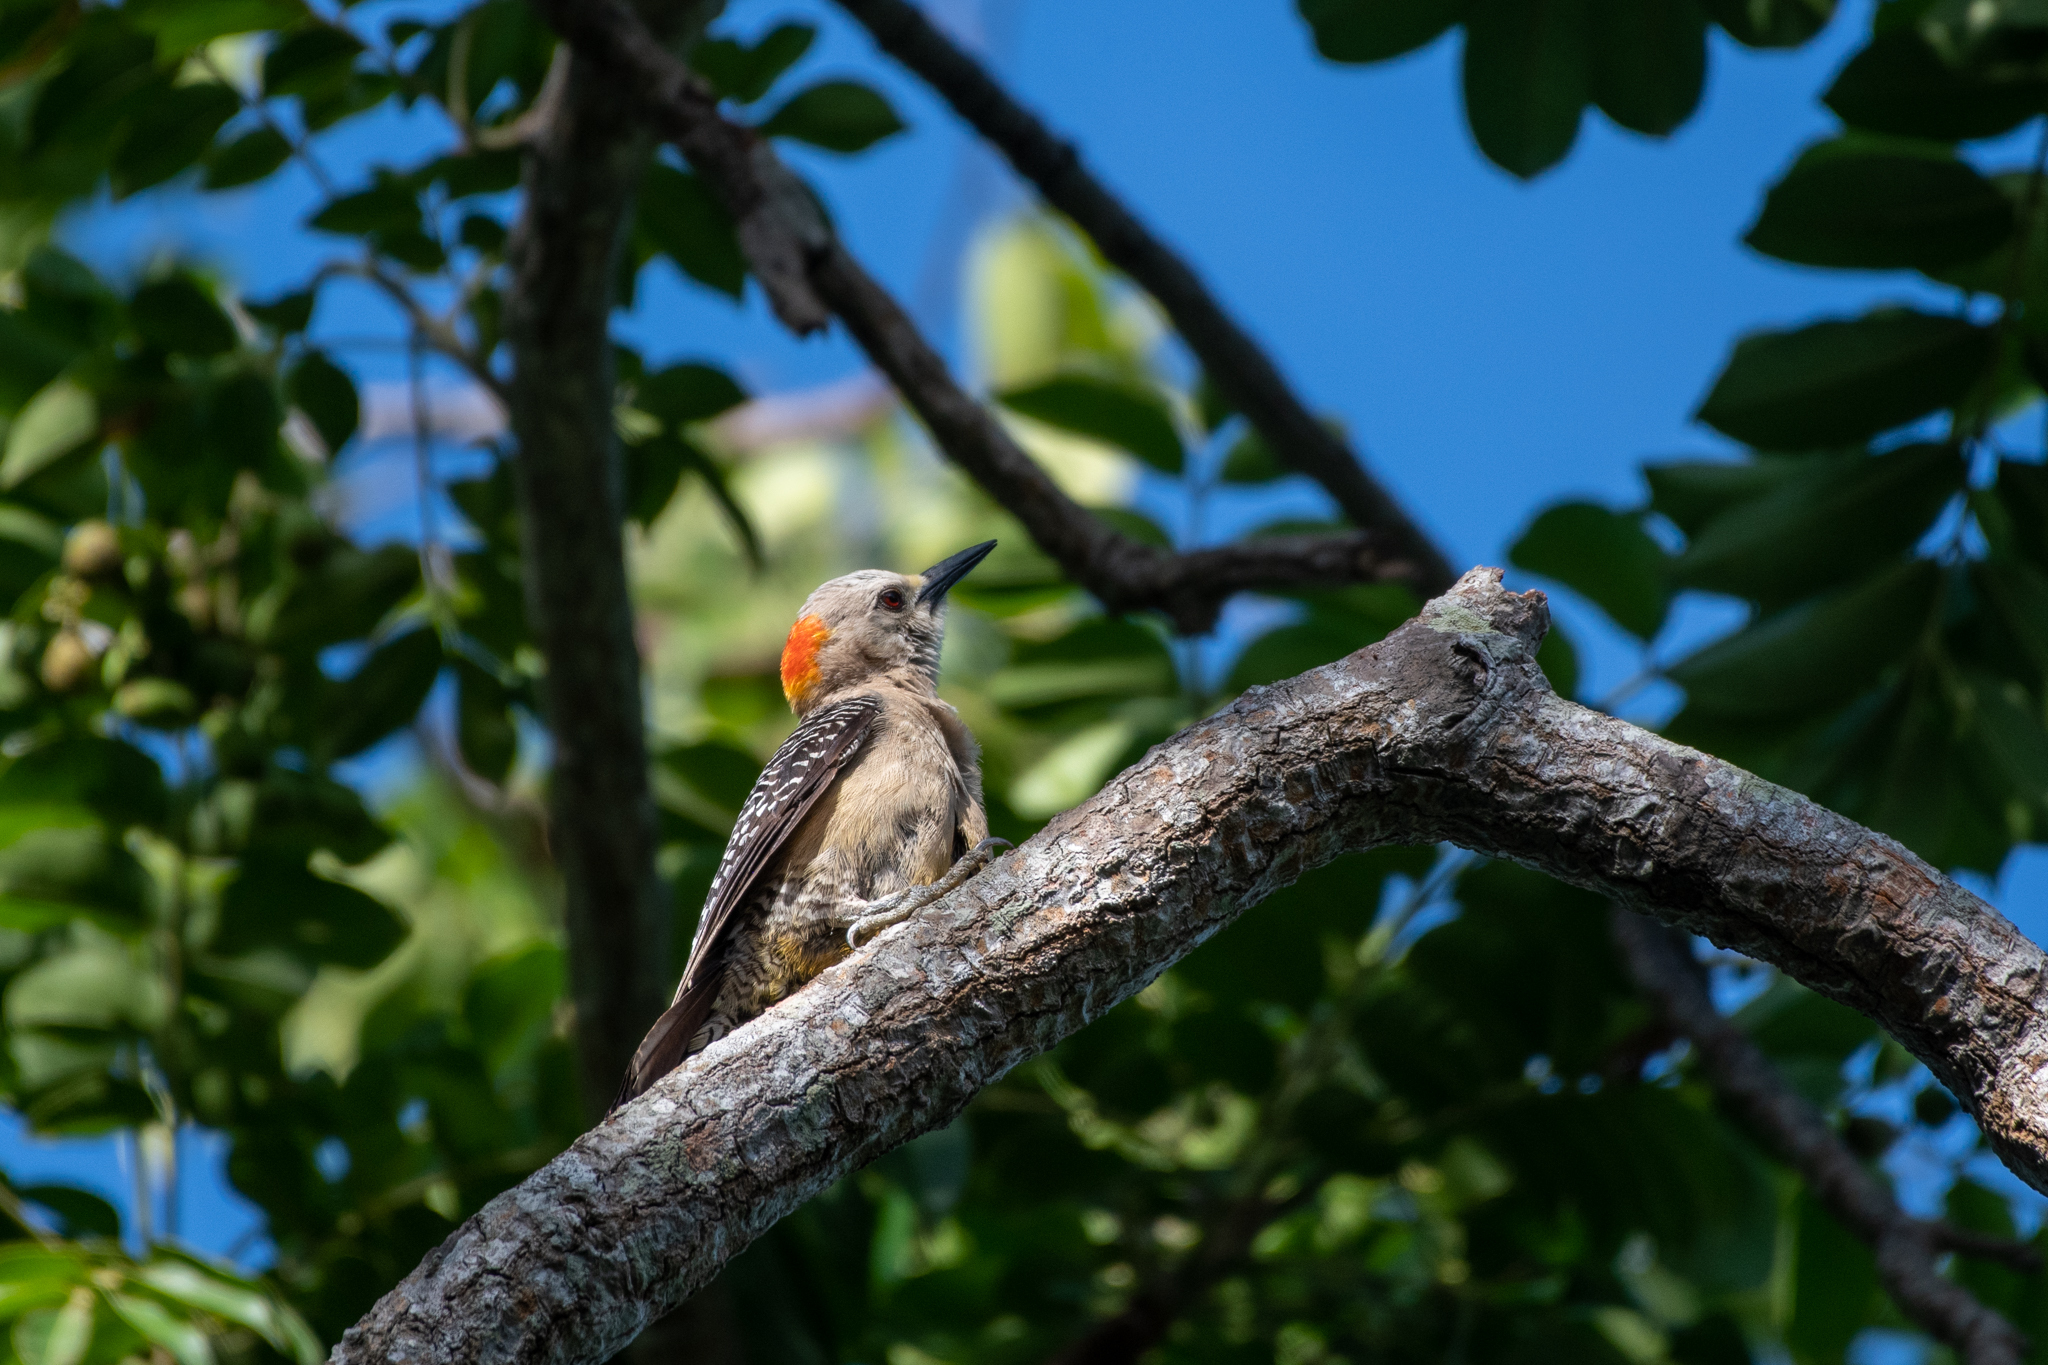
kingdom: Animalia
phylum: Chordata
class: Aves
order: Piciformes
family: Picidae
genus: Melanerpes
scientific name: Melanerpes santacruzi
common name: Velasquez's woodpecker
